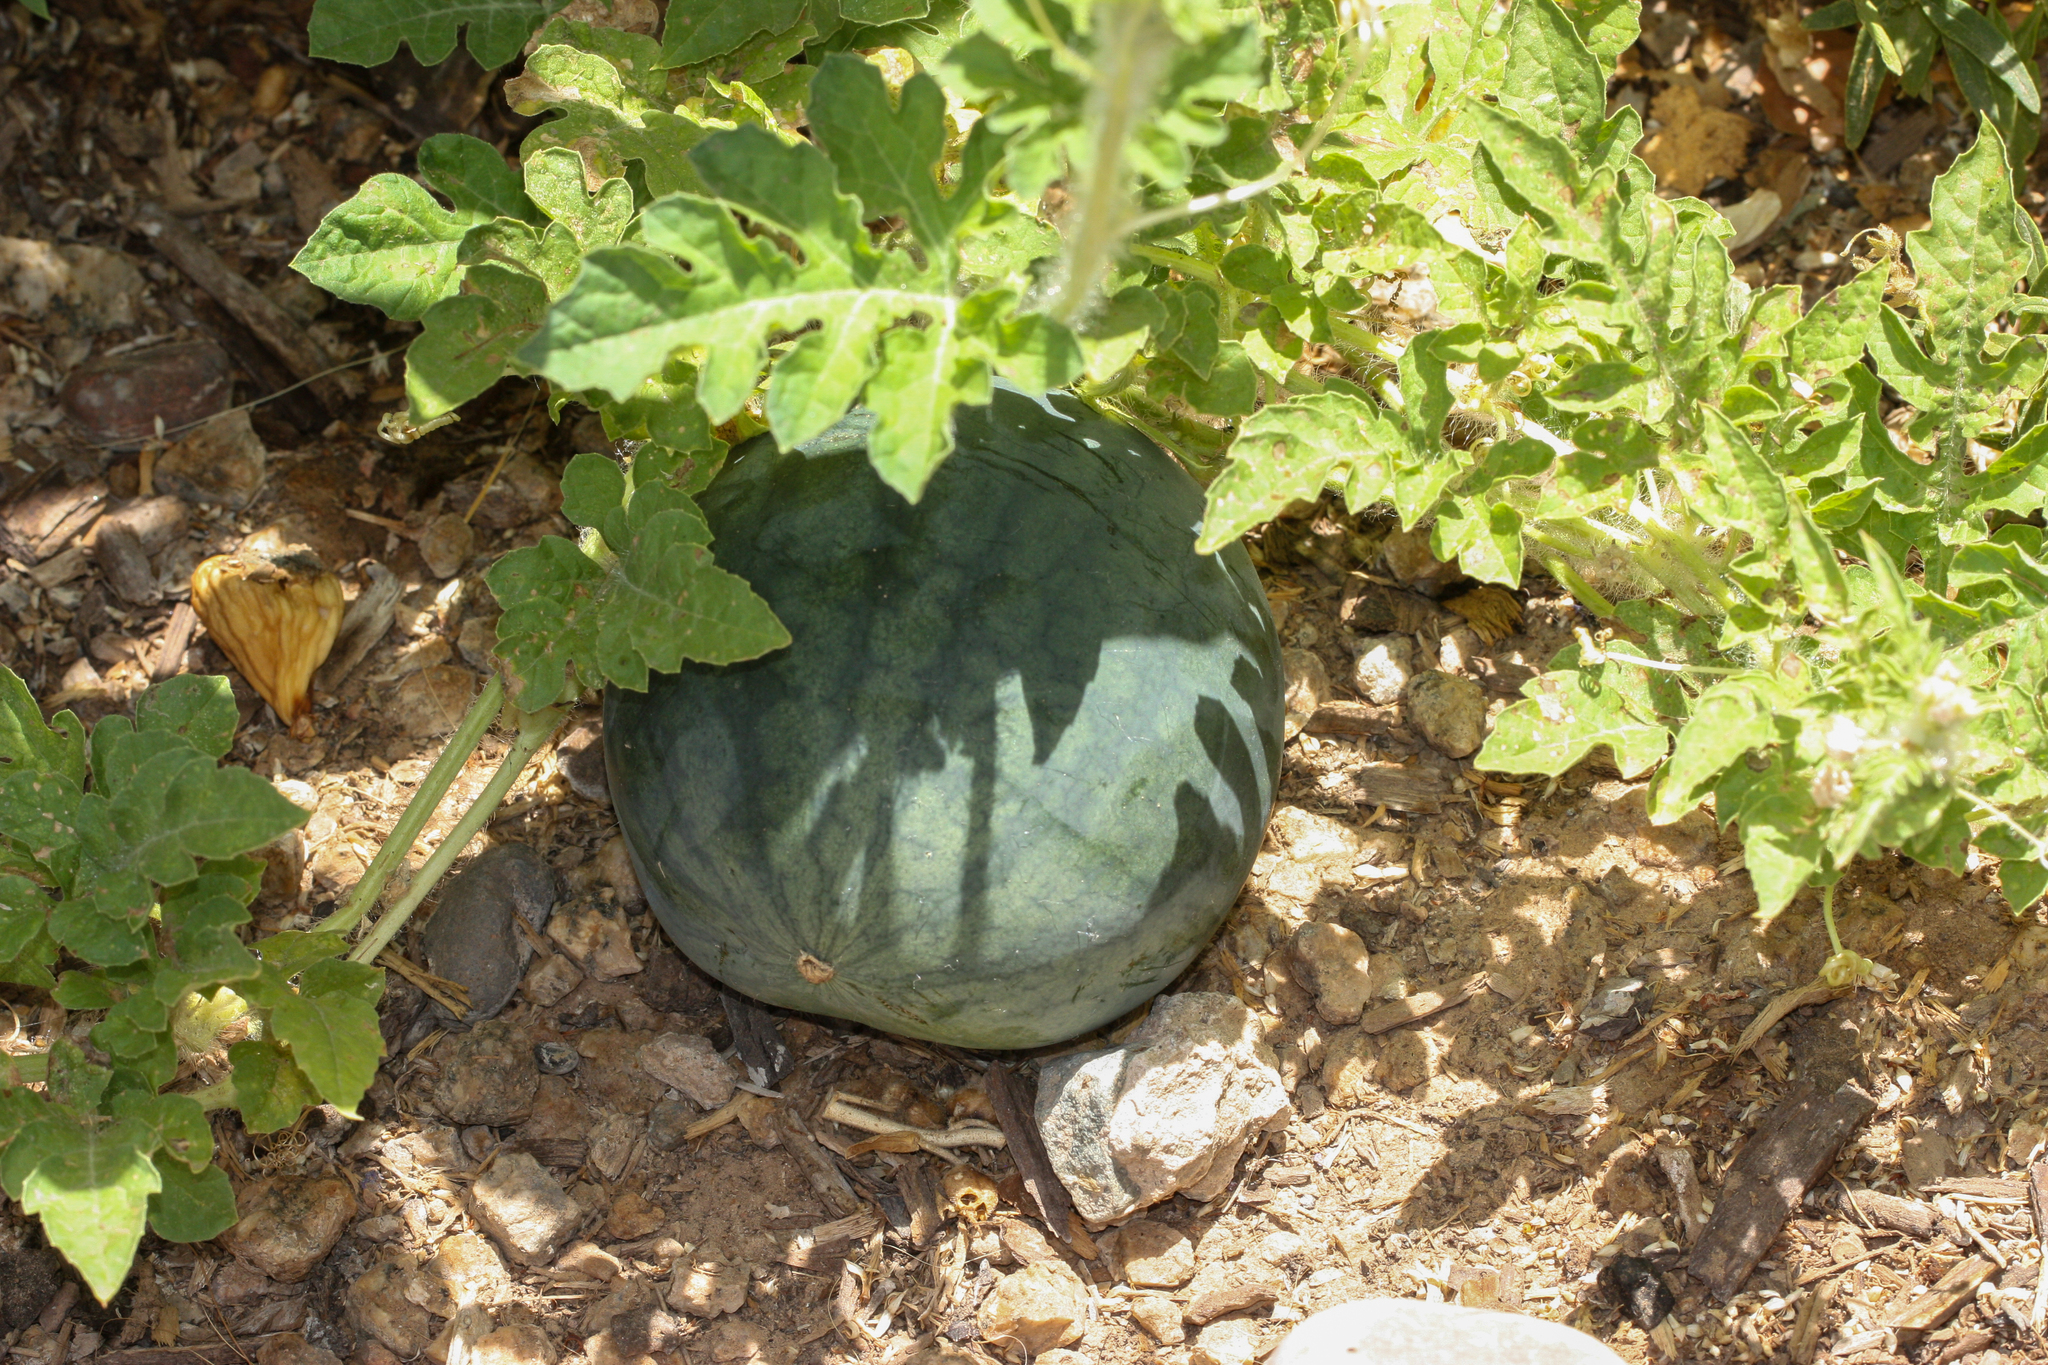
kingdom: Plantae
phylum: Tracheophyta
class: Magnoliopsida
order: Cucurbitales
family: Cucurbitaceae
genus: Citrullus
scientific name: Citrullus lanatus
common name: Watermelon
